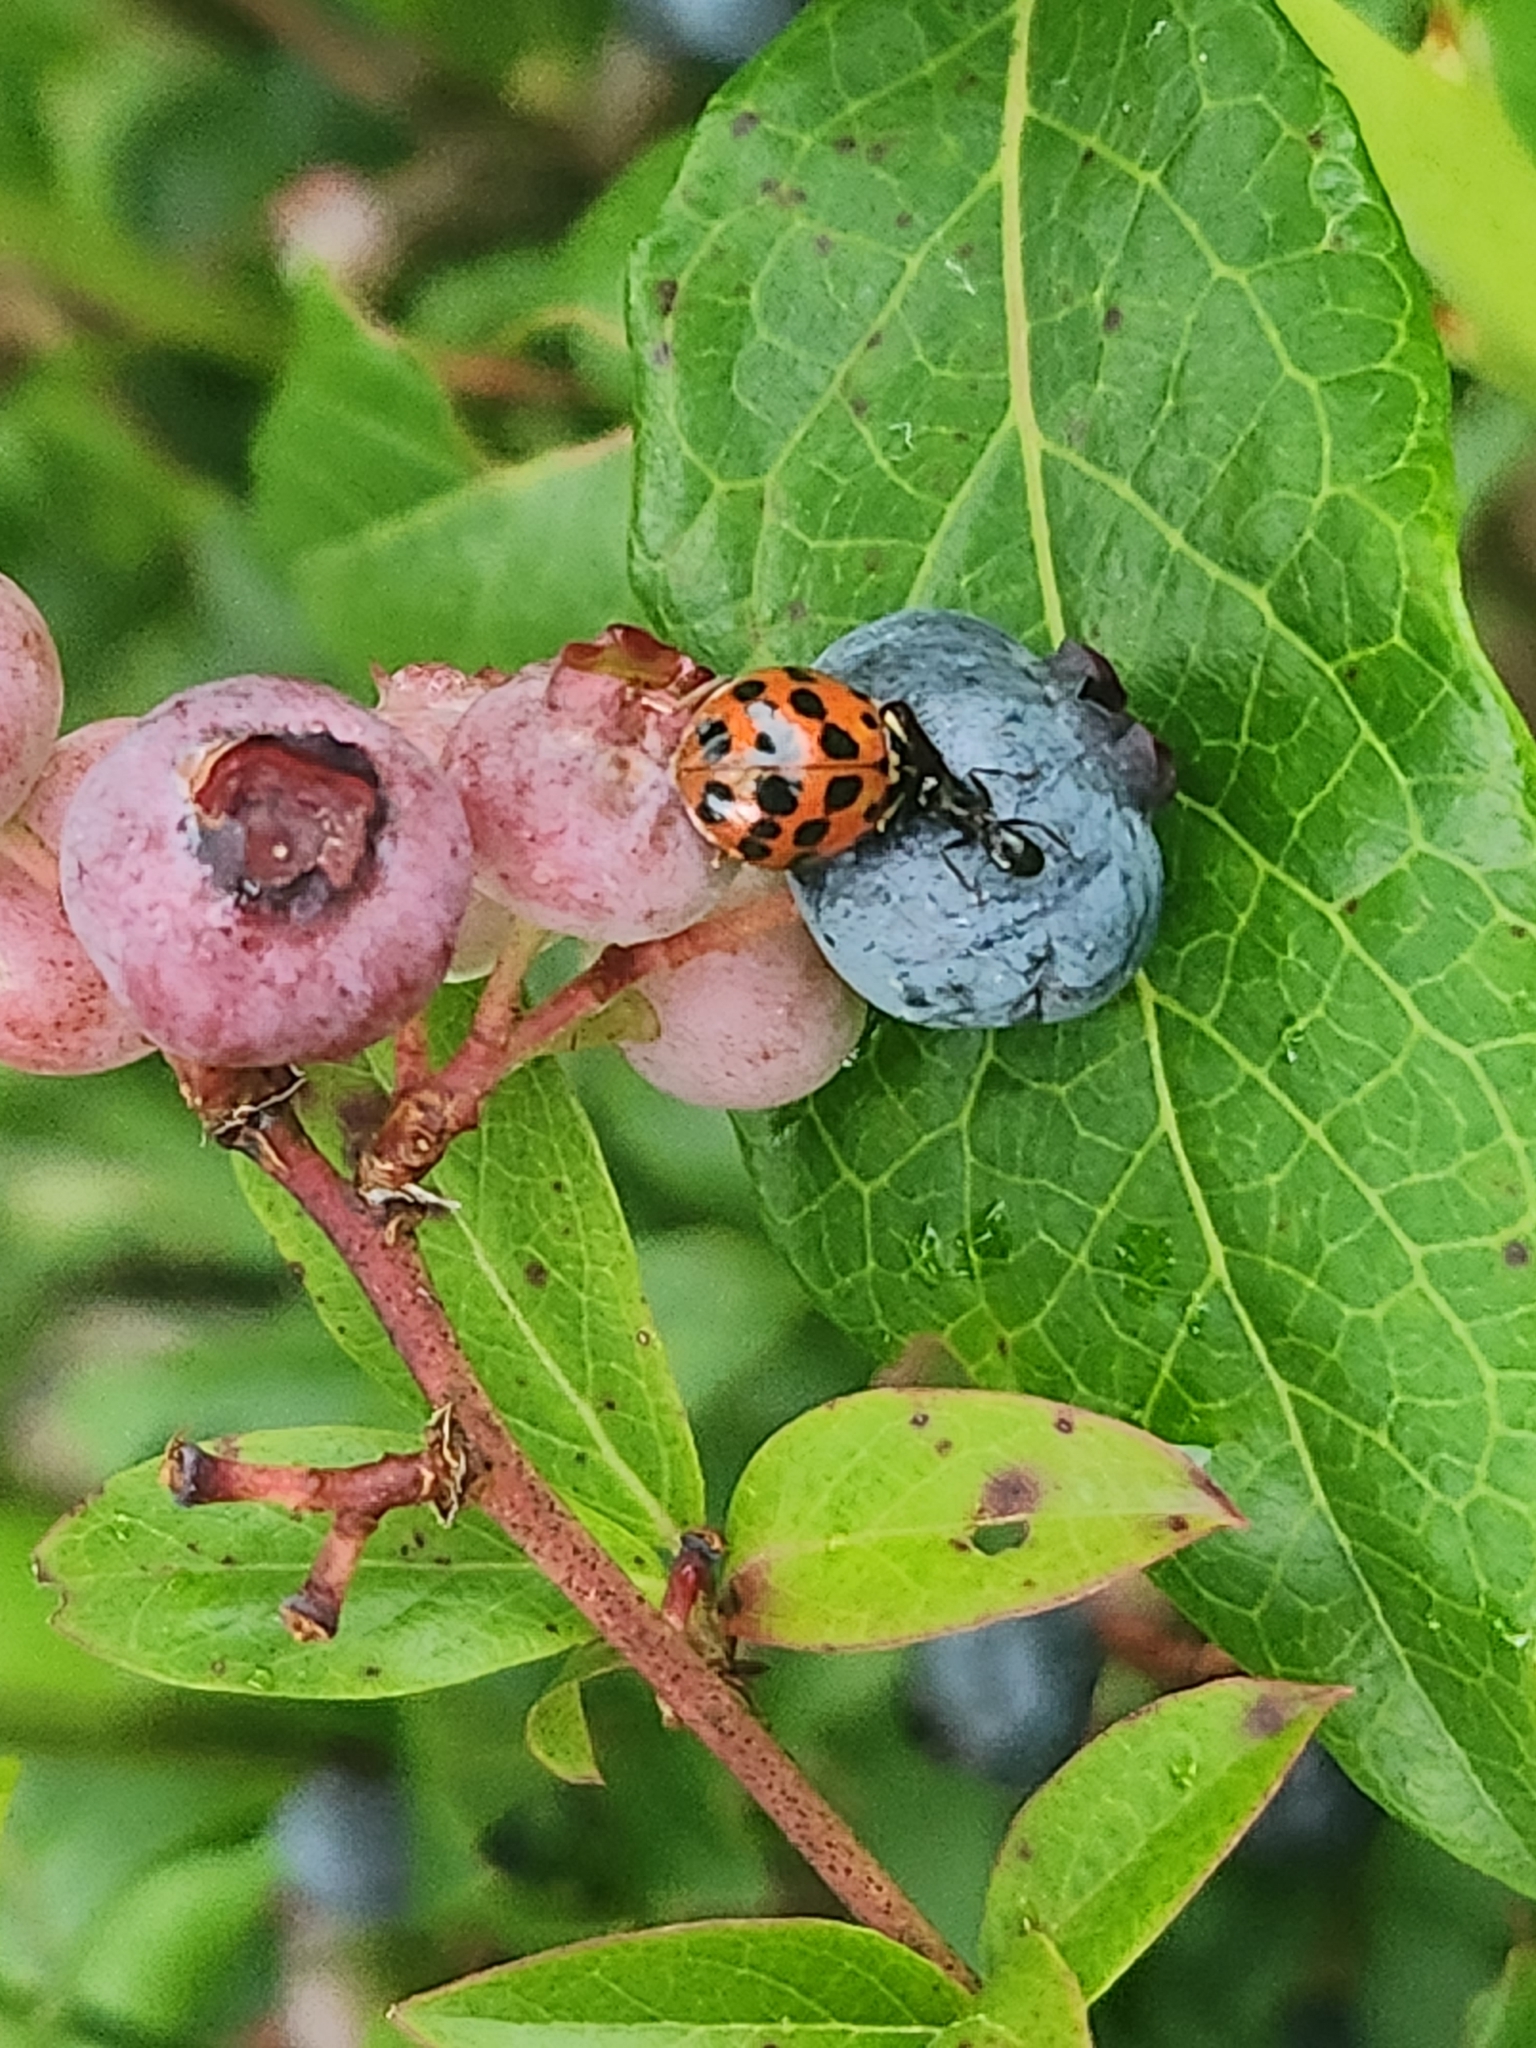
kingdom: Animalia
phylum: Arthropoda
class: Insecta
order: Coleoptera
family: Coccinellidae
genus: Harmonia
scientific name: Harmonia axyridis
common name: Harlequin ladybird
